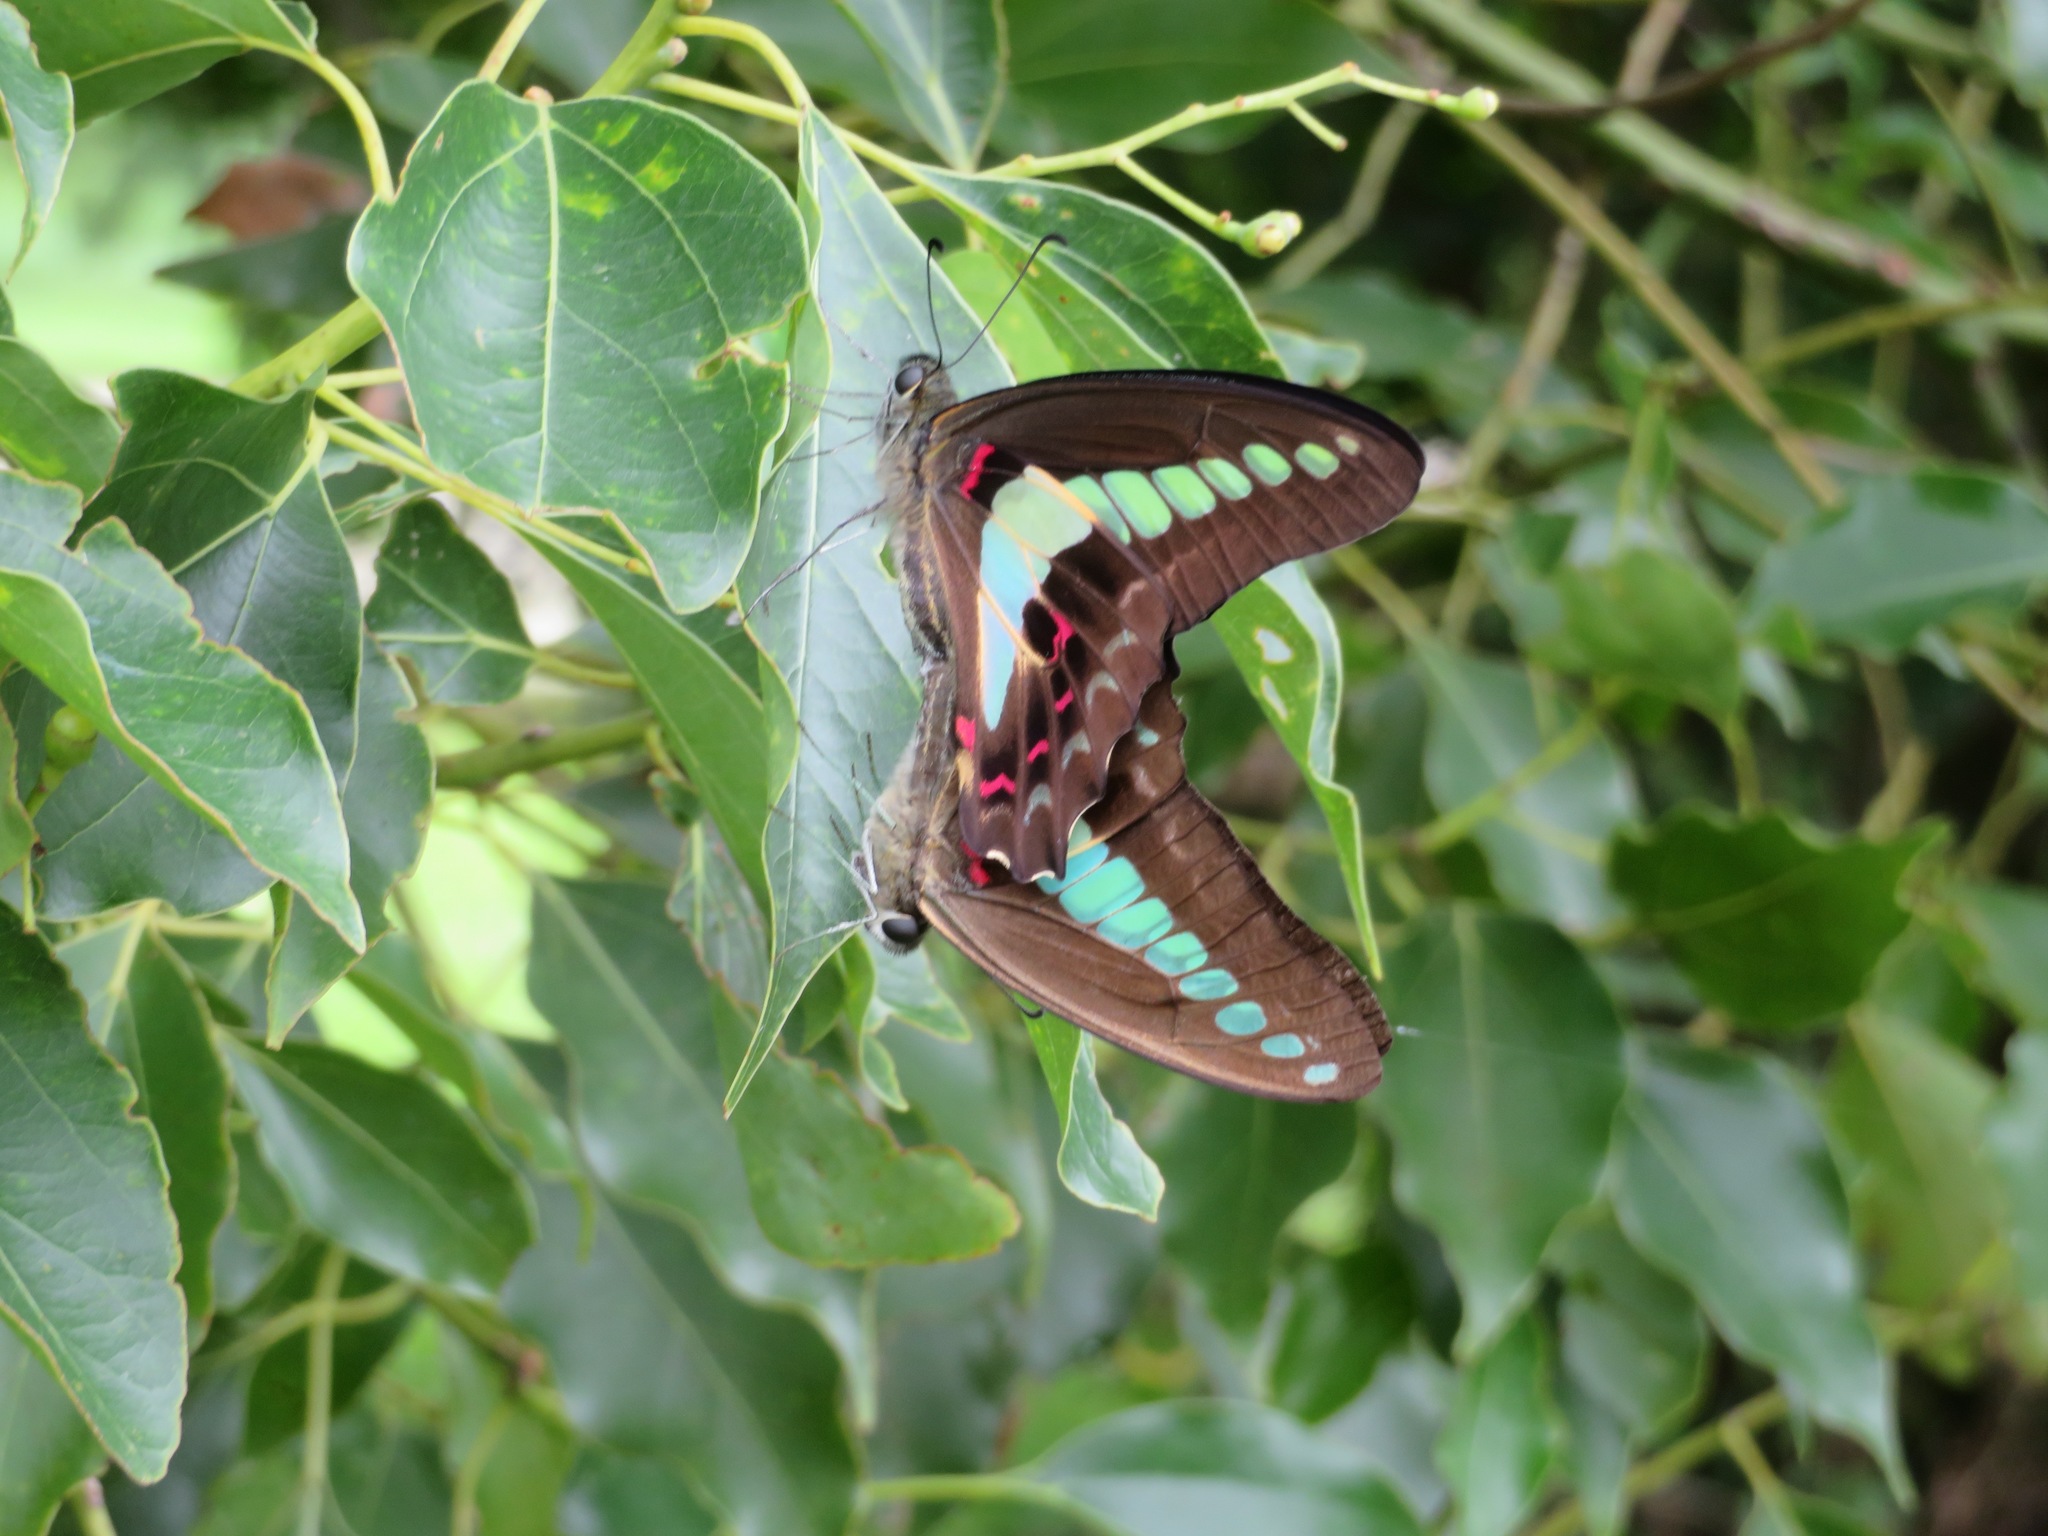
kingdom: Fungi
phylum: Ascomycota
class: Sordariomycetes
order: Microascales
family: Microascaceae
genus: Graphium
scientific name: Graphium sarpedon
